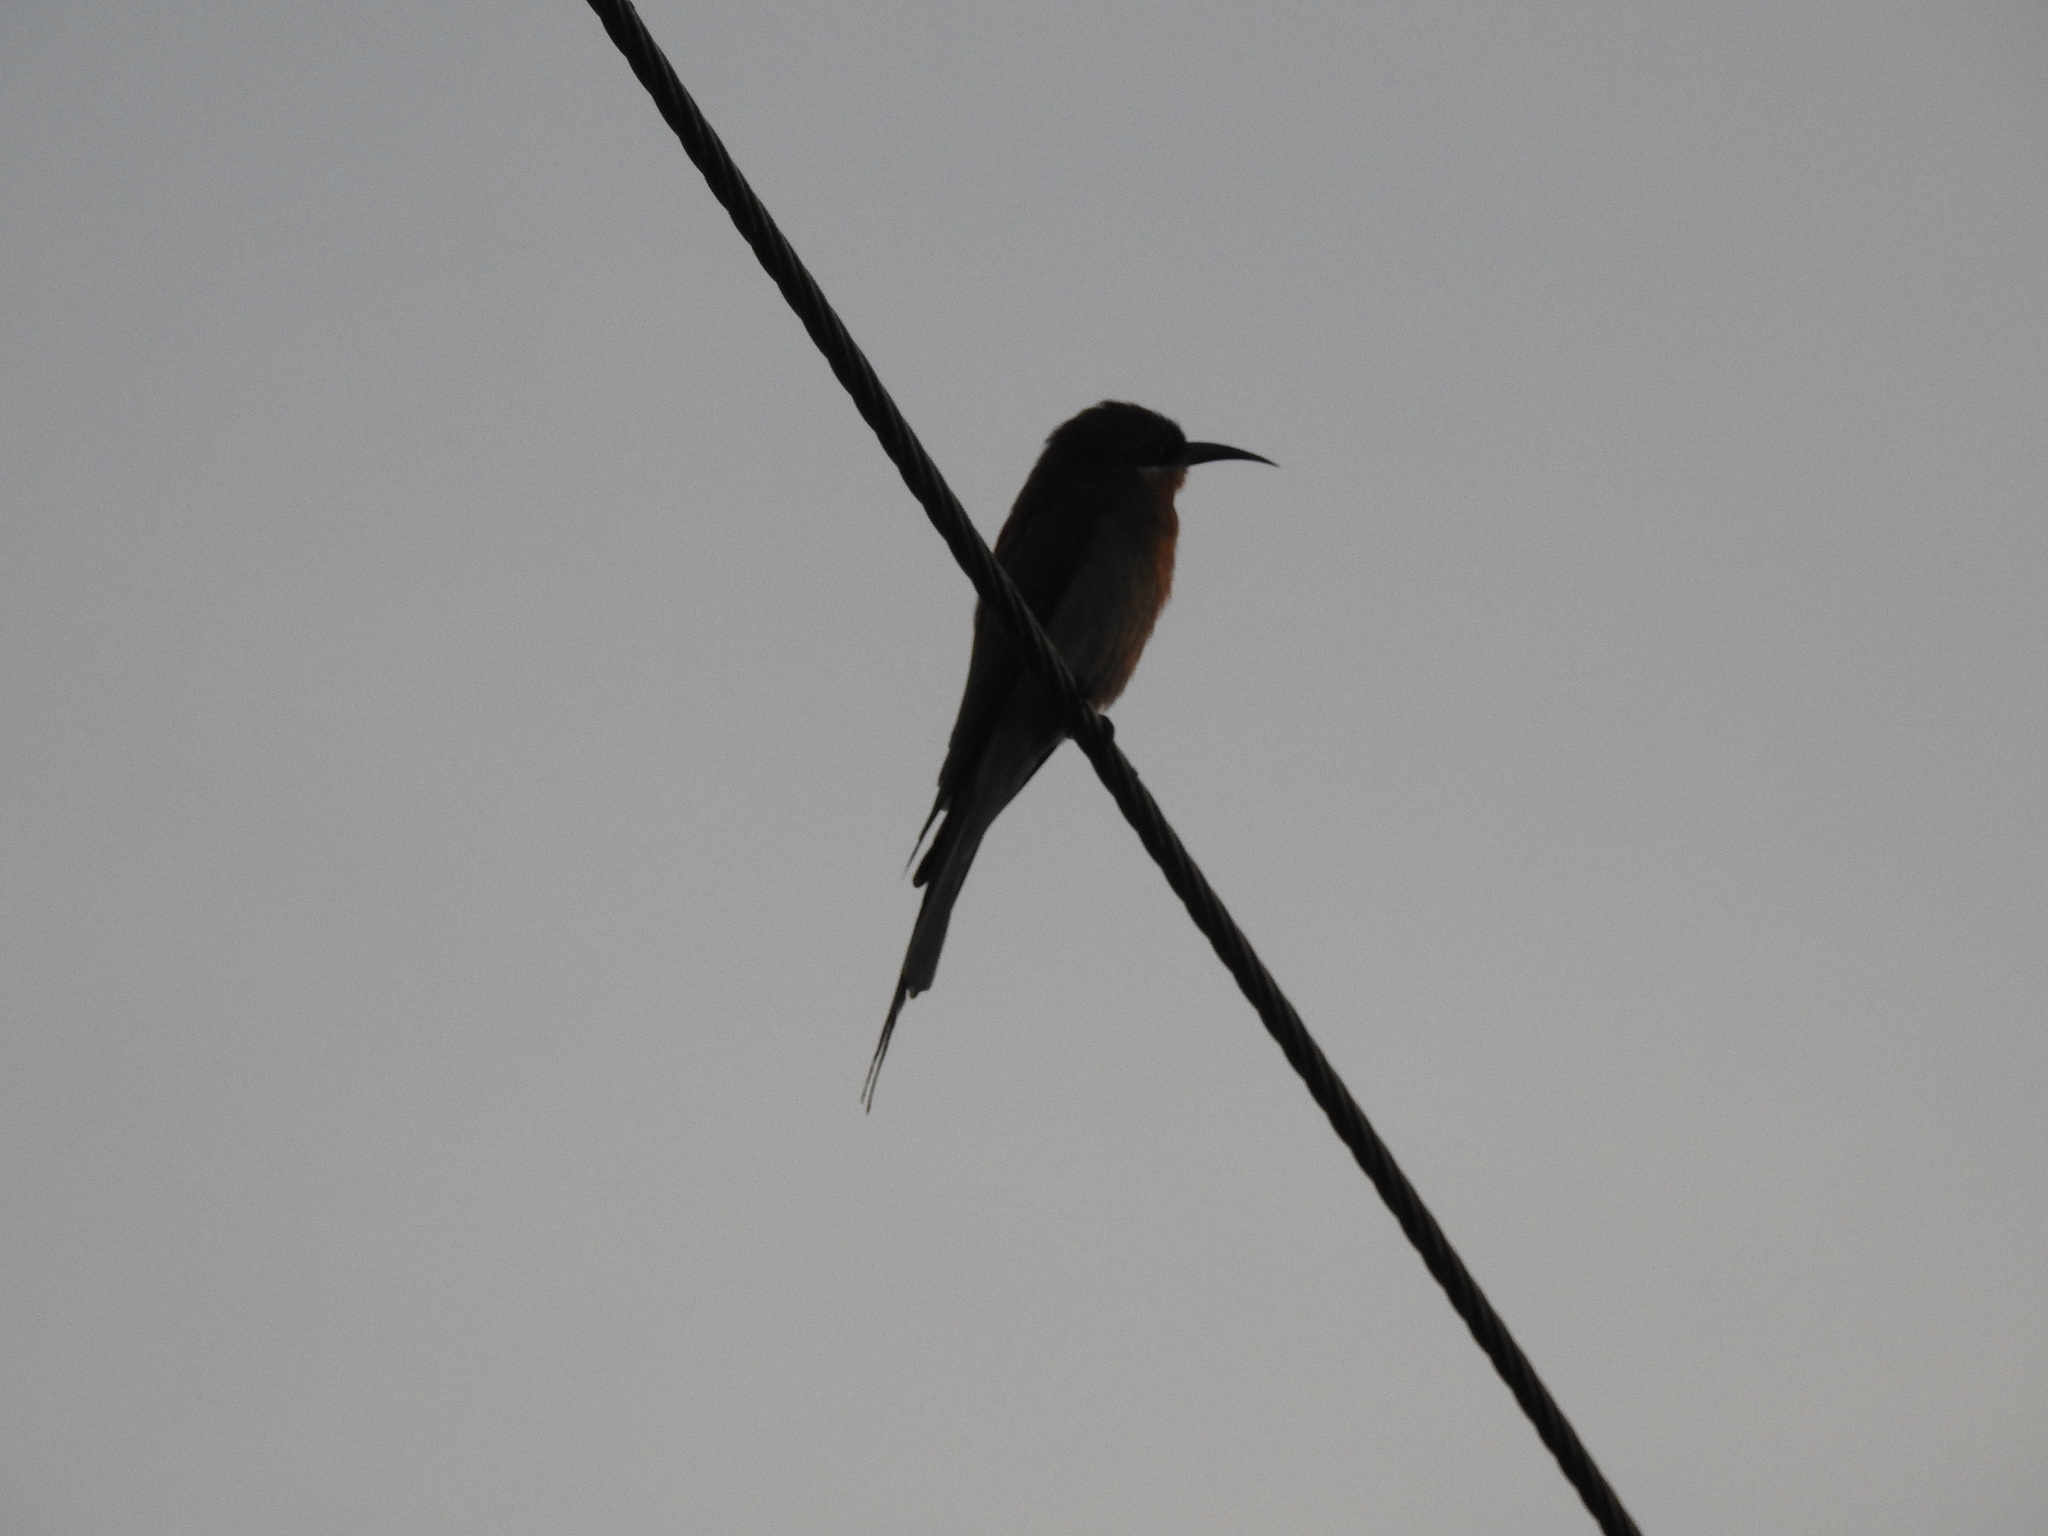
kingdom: Animalia
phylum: Chordata
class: Aves
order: Coraciiformes
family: Meropidae
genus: Merops
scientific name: Merops philippinus
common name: Blue-tailed bee-eater
